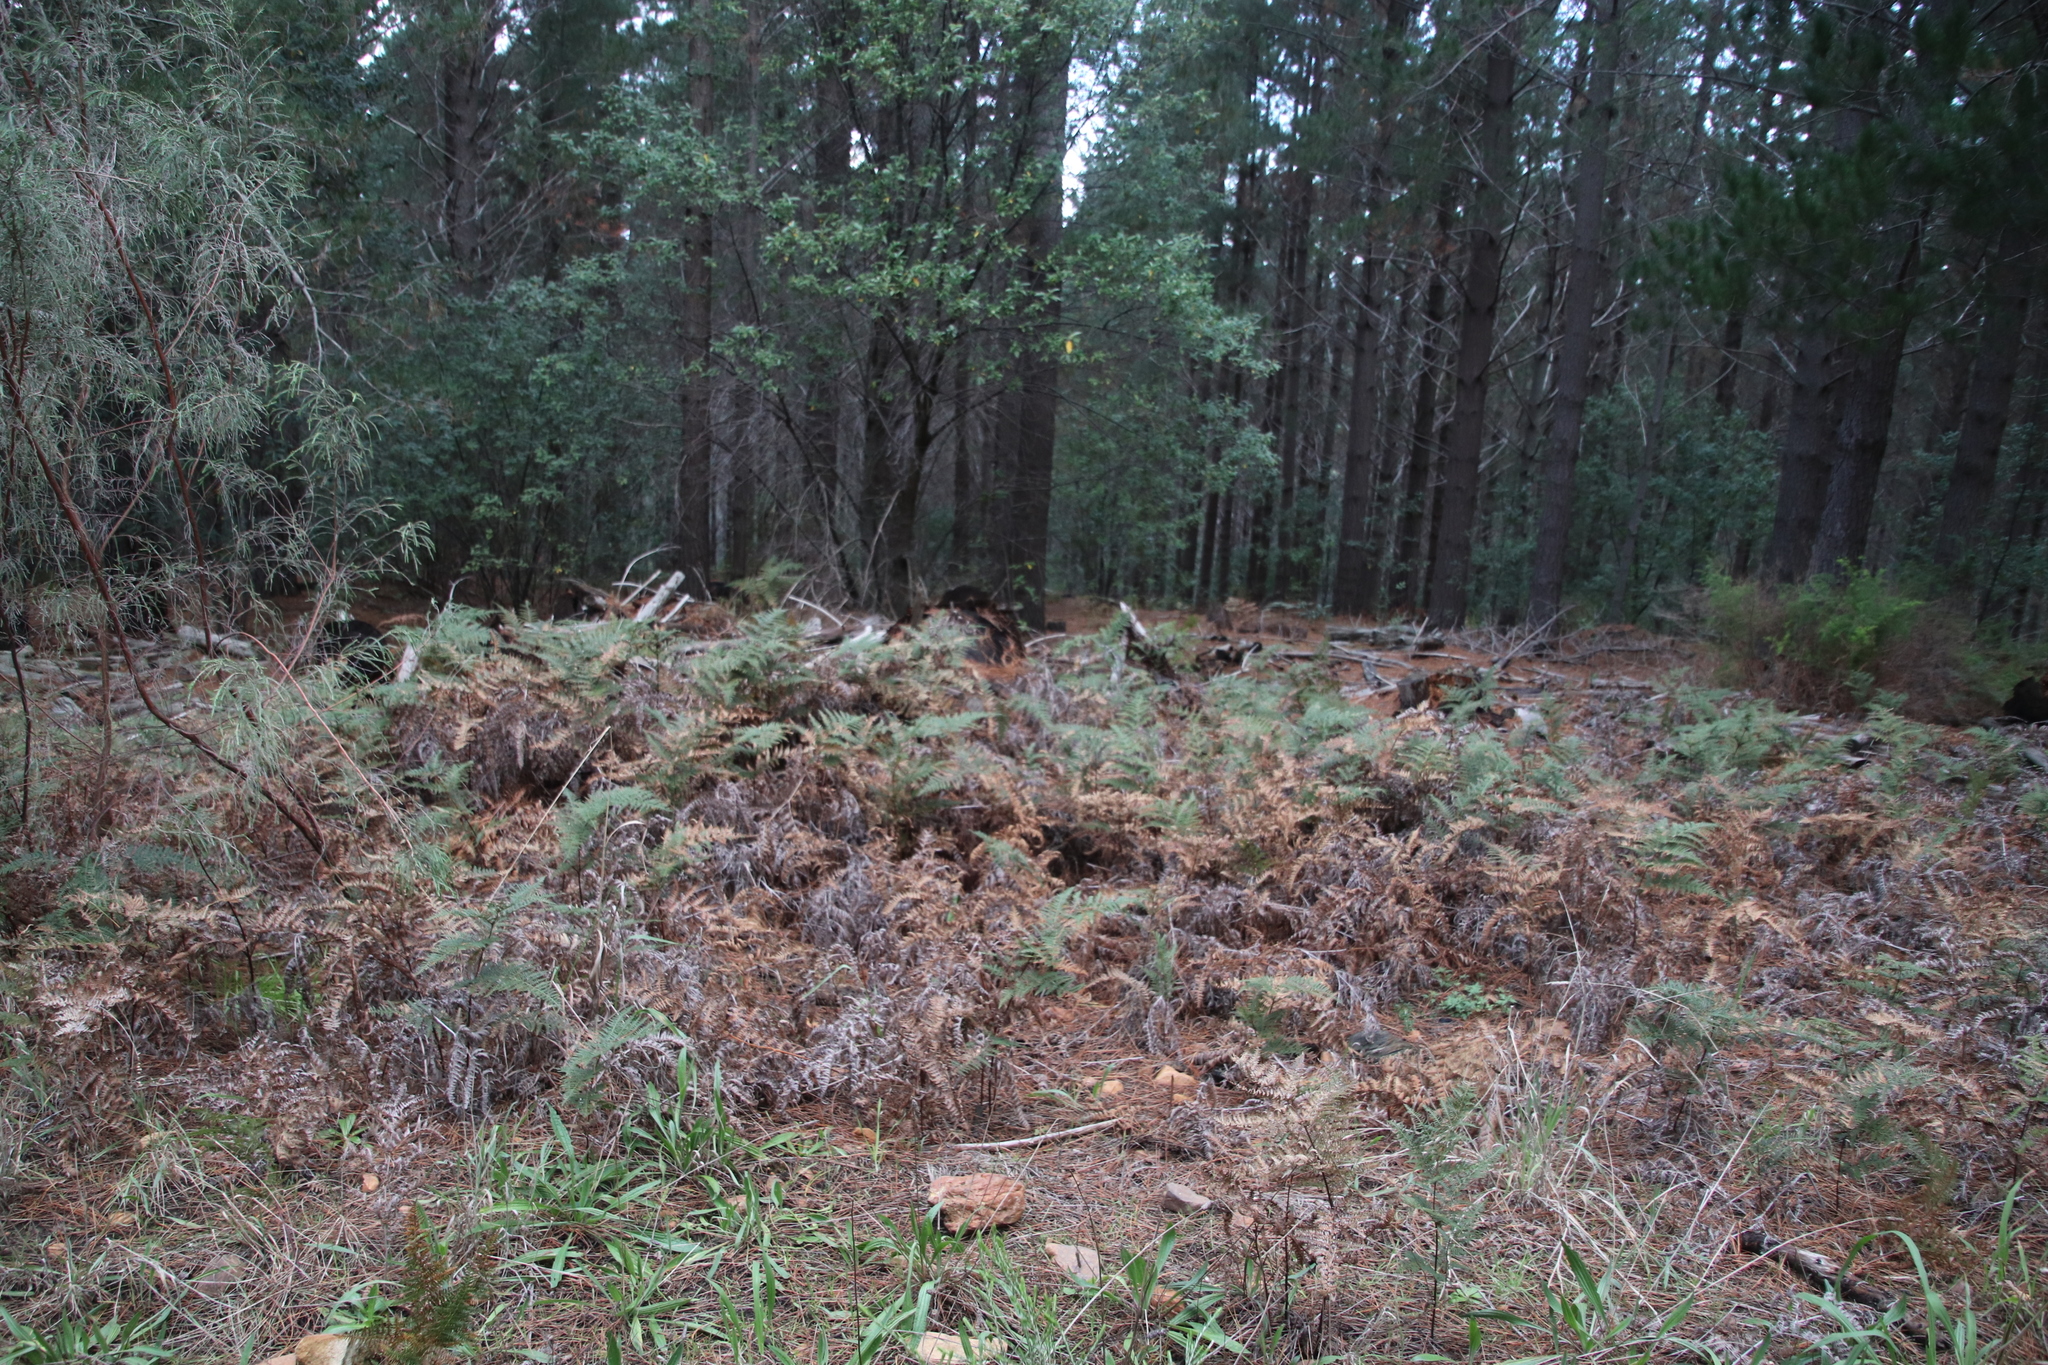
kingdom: Plantae
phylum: Tracheophyta
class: Polypodiopsida
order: Polypodiales
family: Dennstaedtiaceae
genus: Pteridium
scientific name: Pteridium aquilinum
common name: Bracken
